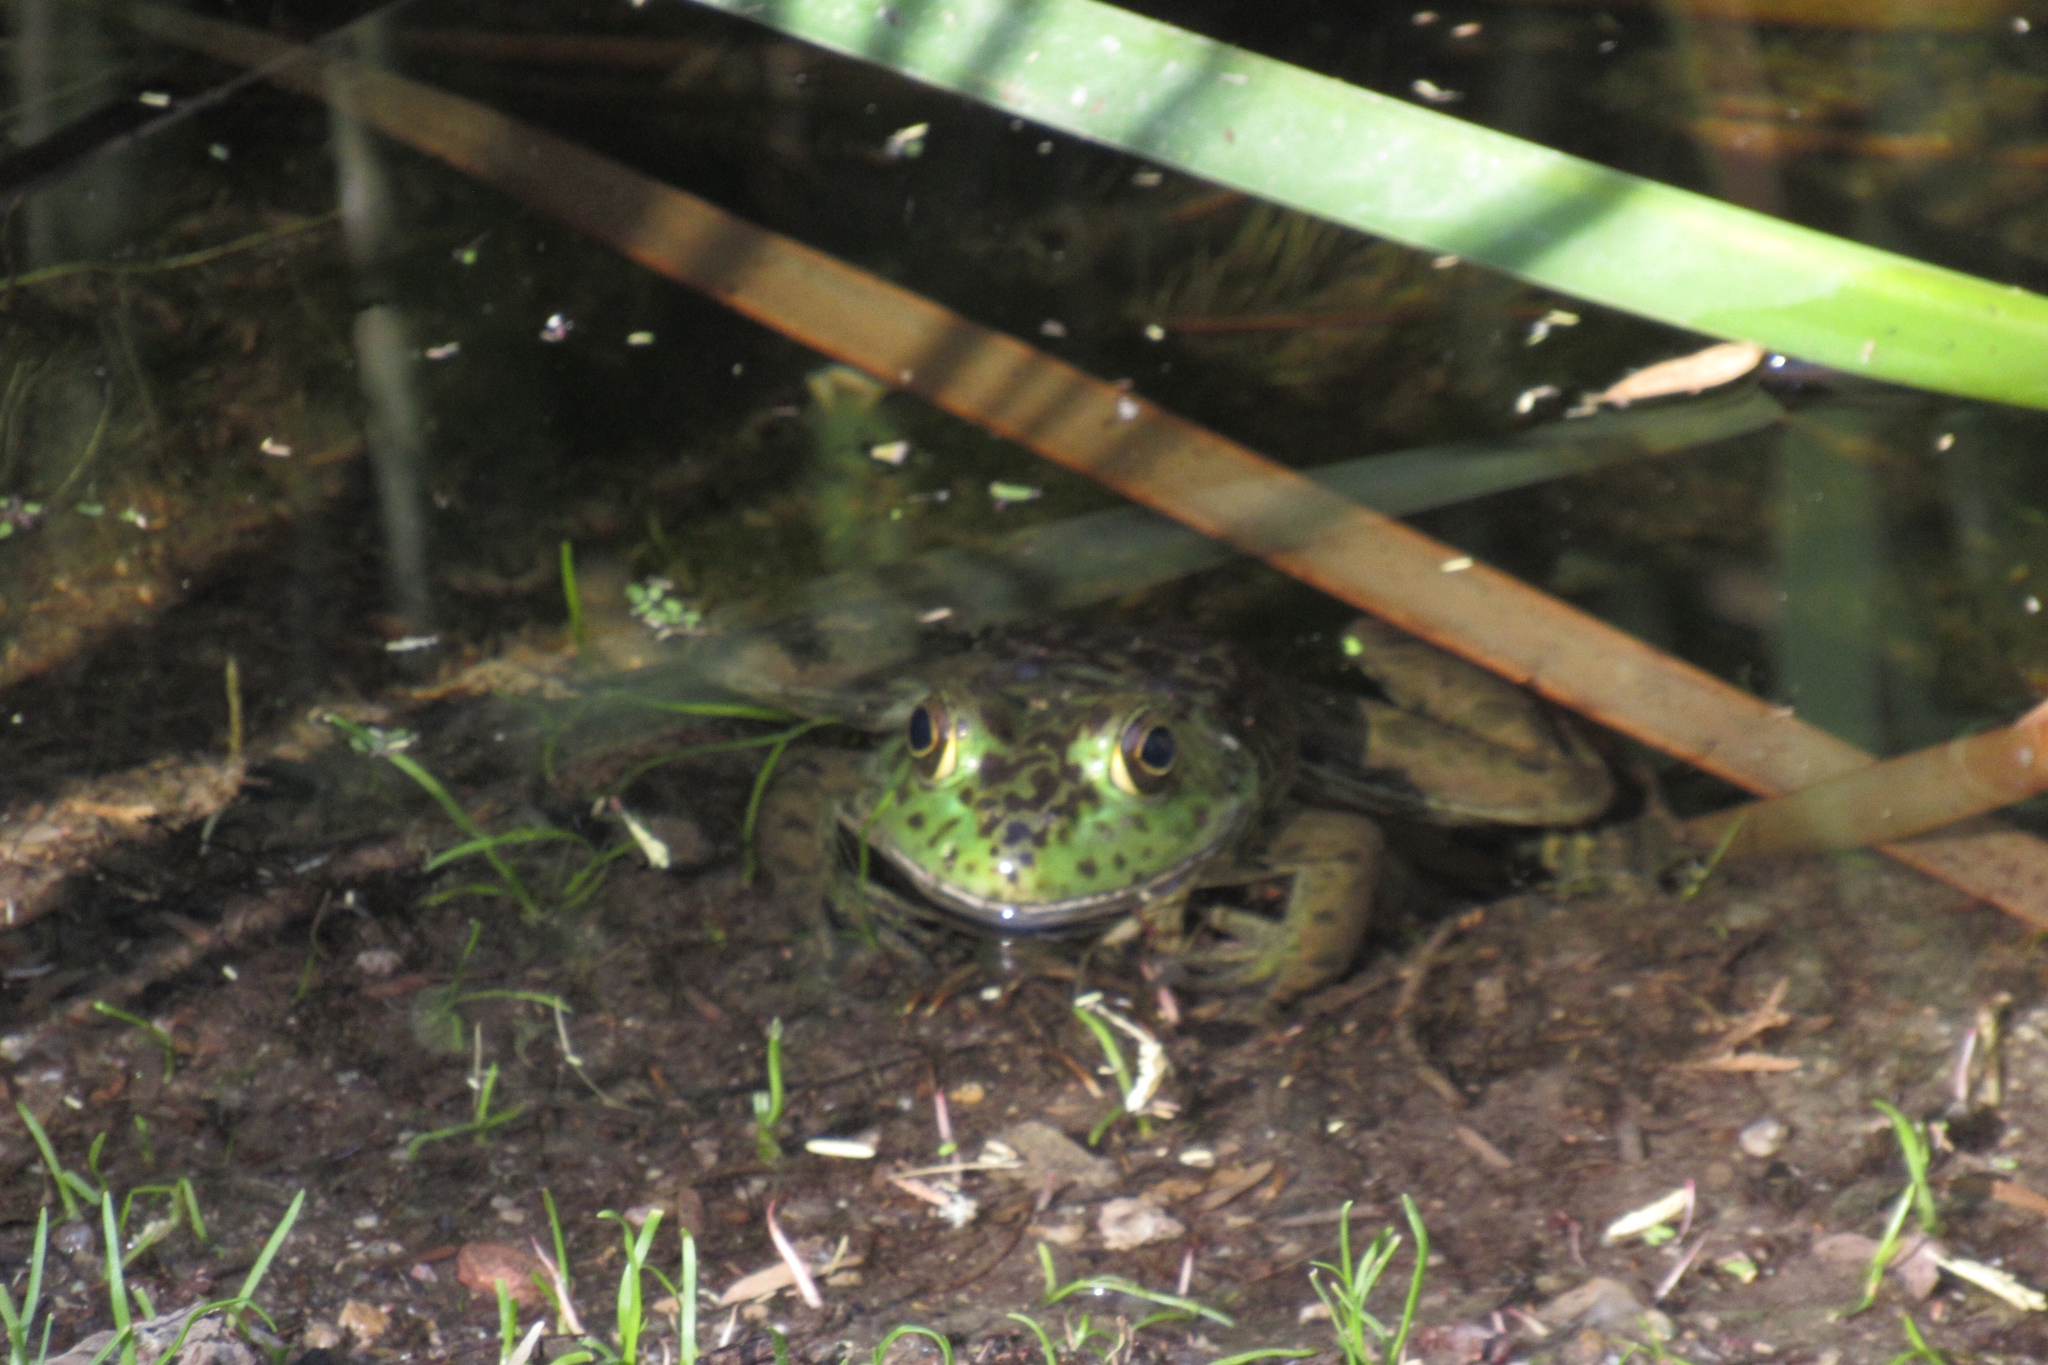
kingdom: Animalia
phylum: Chordata
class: Amphibia
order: Anura
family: Ranidae
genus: Lithobates
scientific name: Lithobates catesbeianus
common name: American bullfrog
